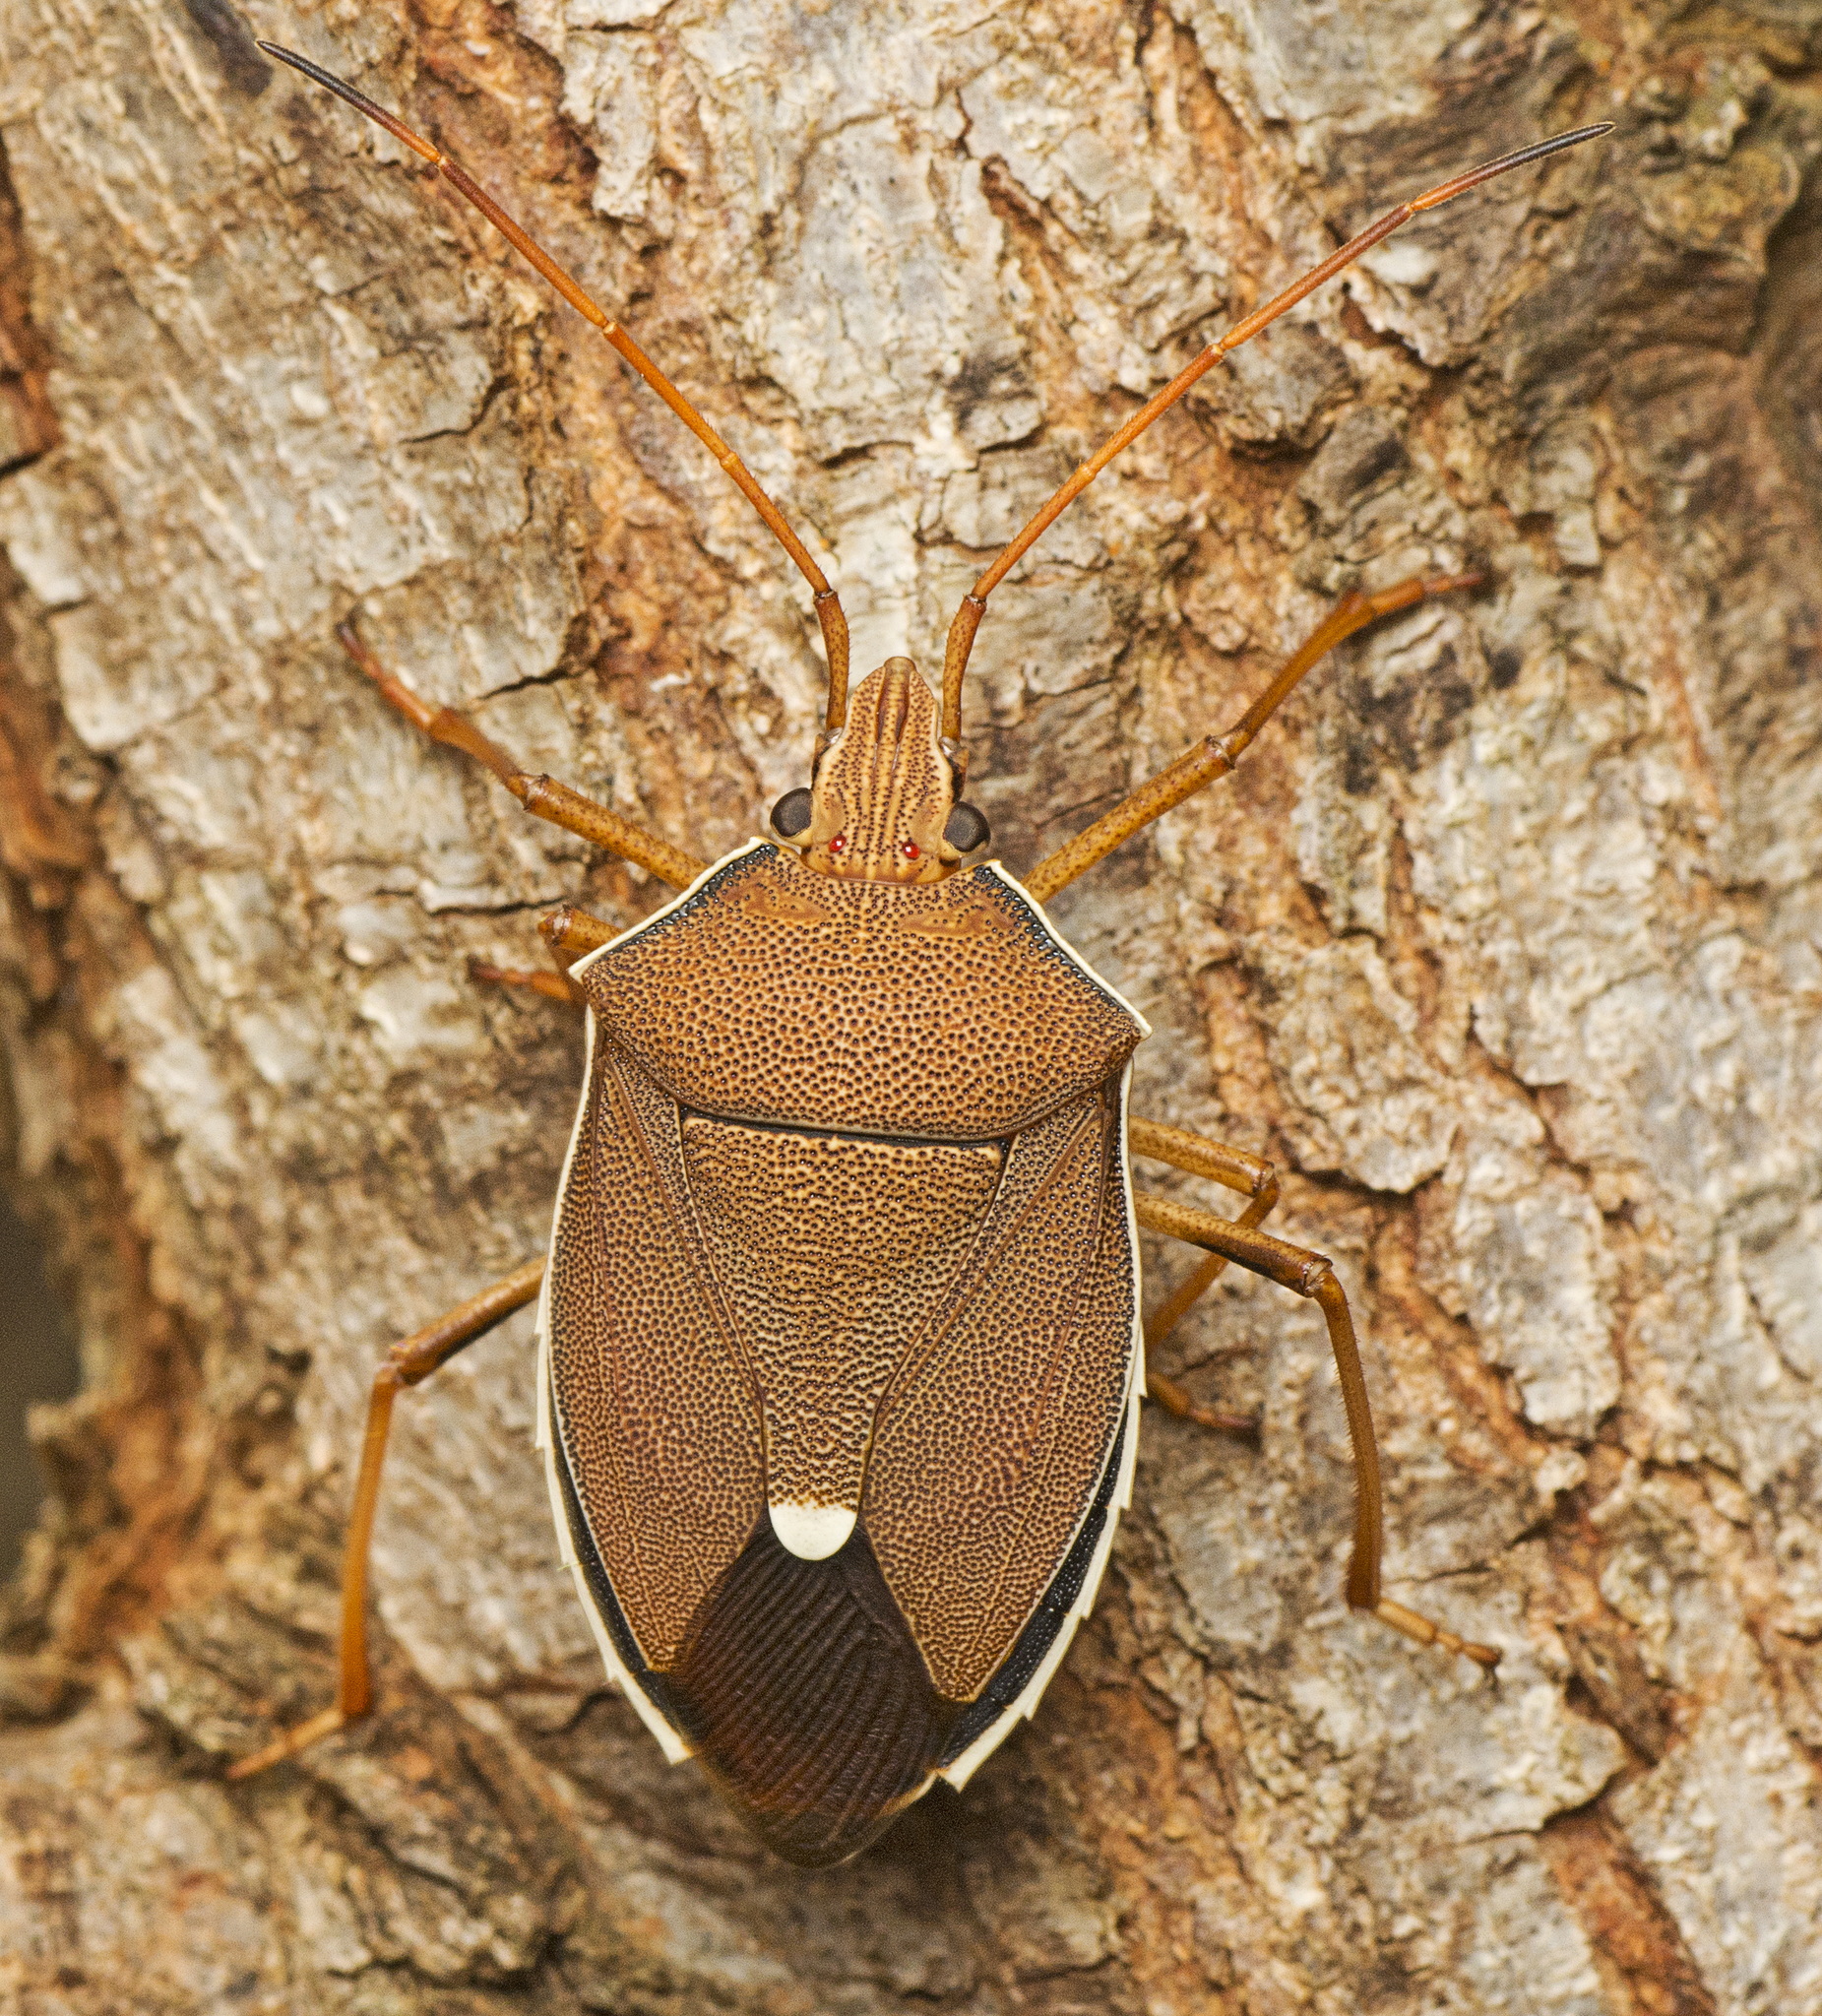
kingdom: Animalia
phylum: Arthropoda
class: Insecta
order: Hemiptera
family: Pentatomidae
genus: Poecilometis
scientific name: Poecilometis
